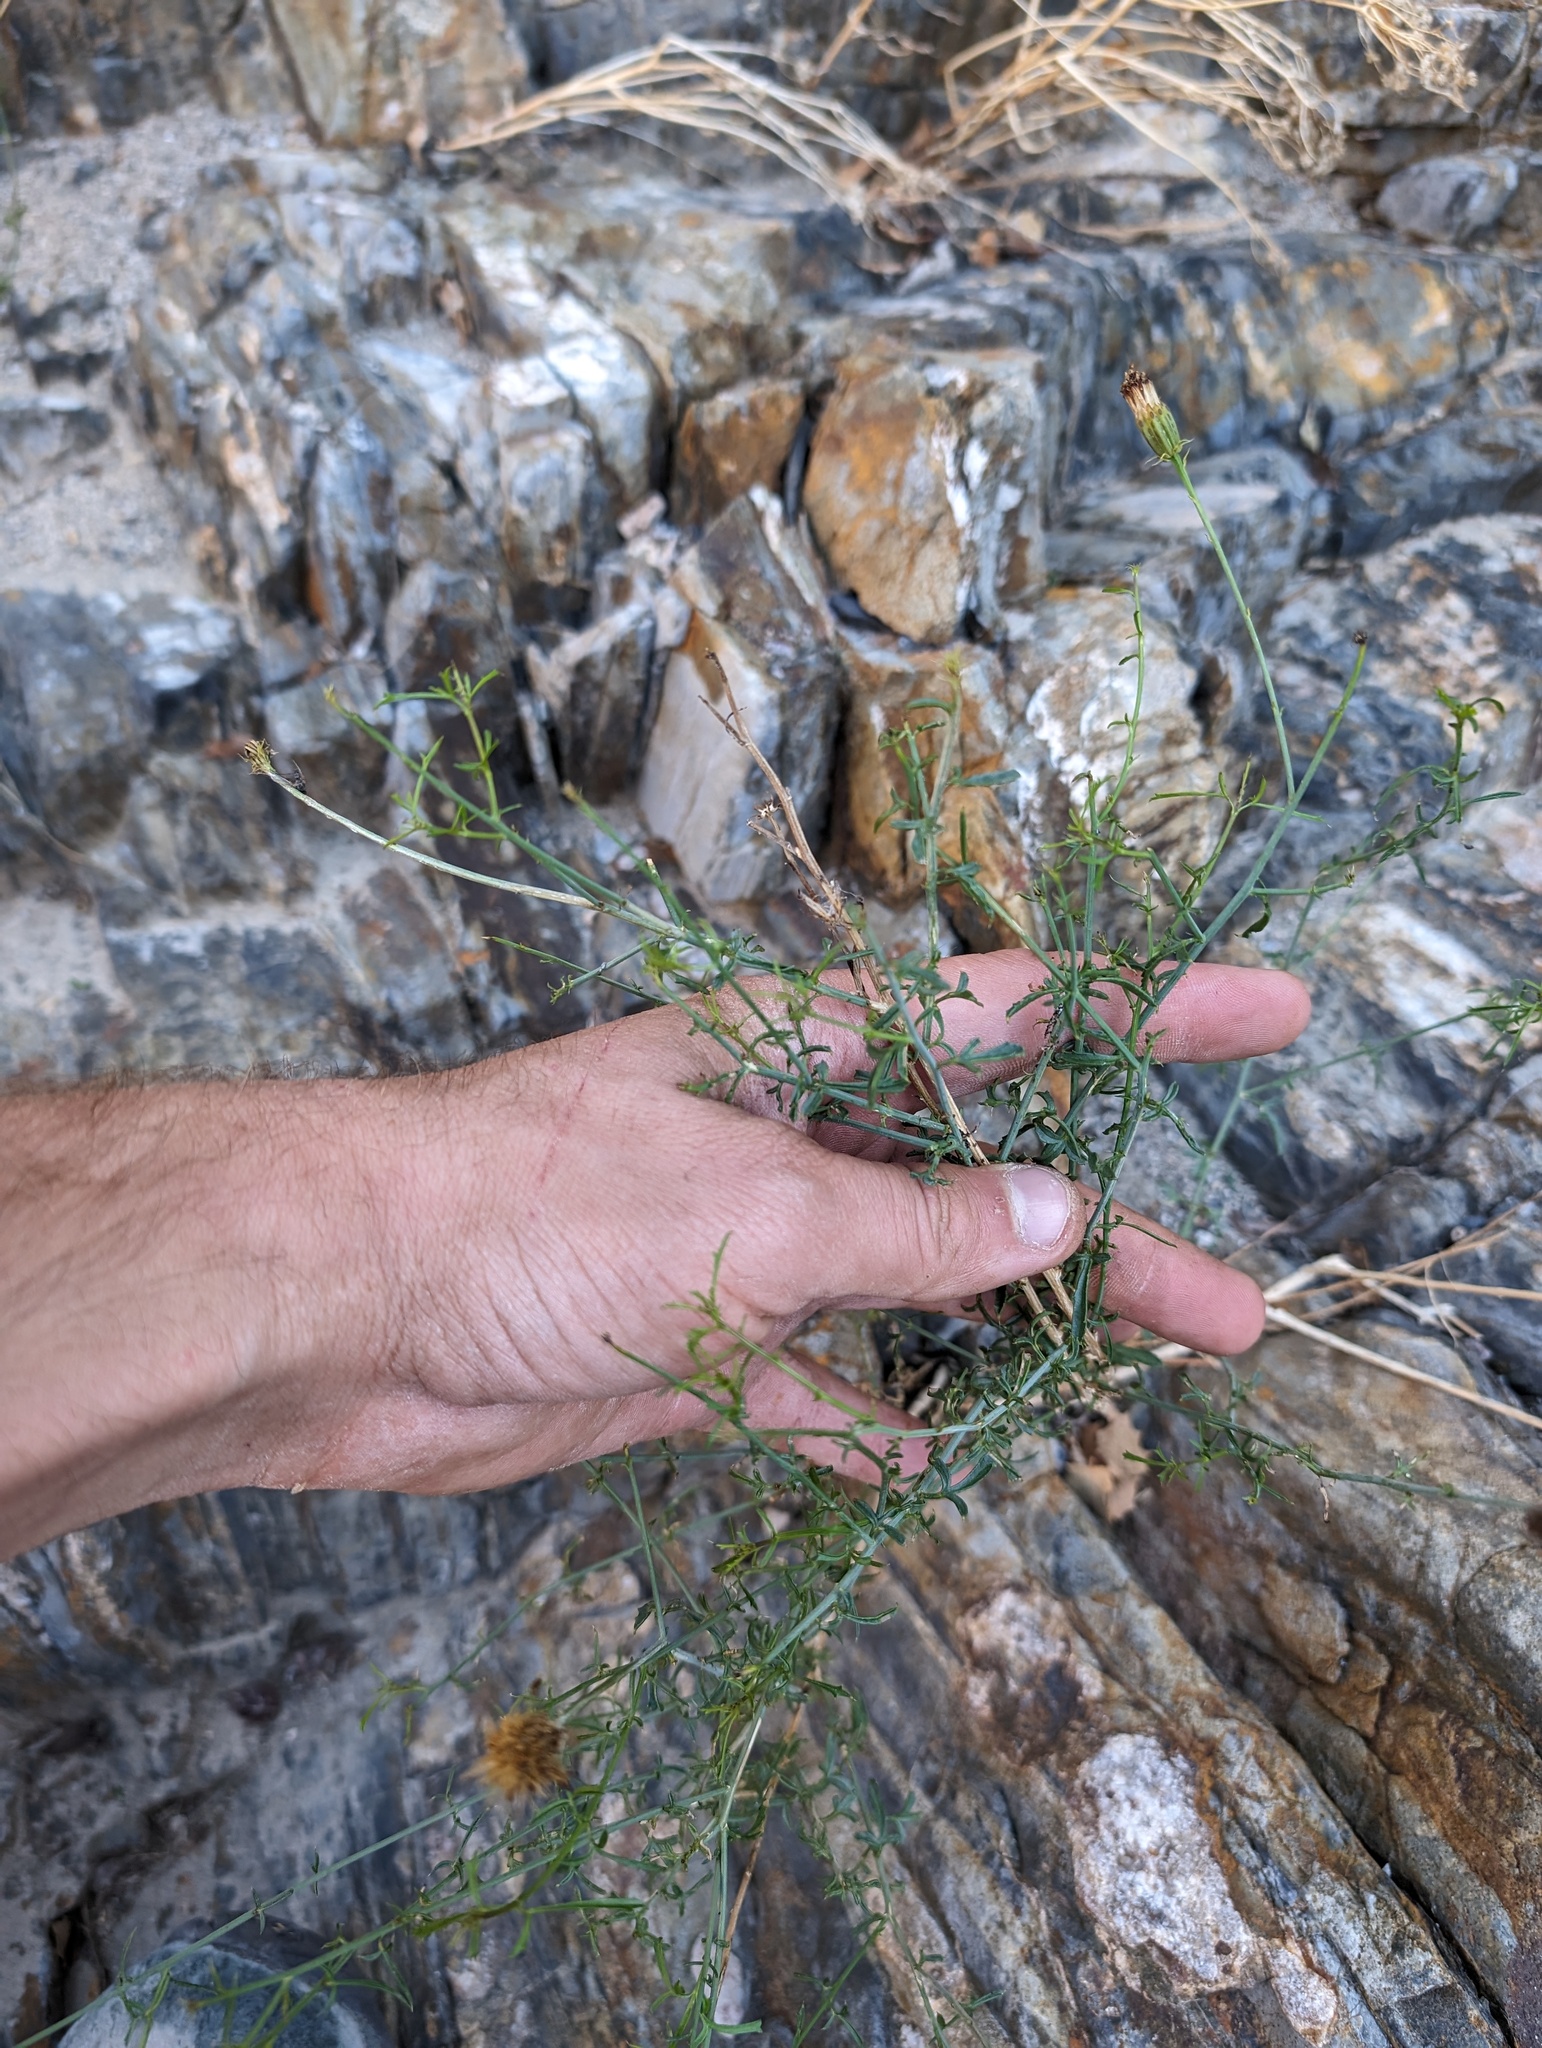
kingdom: Plantae
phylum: Tracheophyta
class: Magnoliopsida
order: Asterales
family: Asteraceae
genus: Adenophyllum
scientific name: Adenophyllum porophylloides
